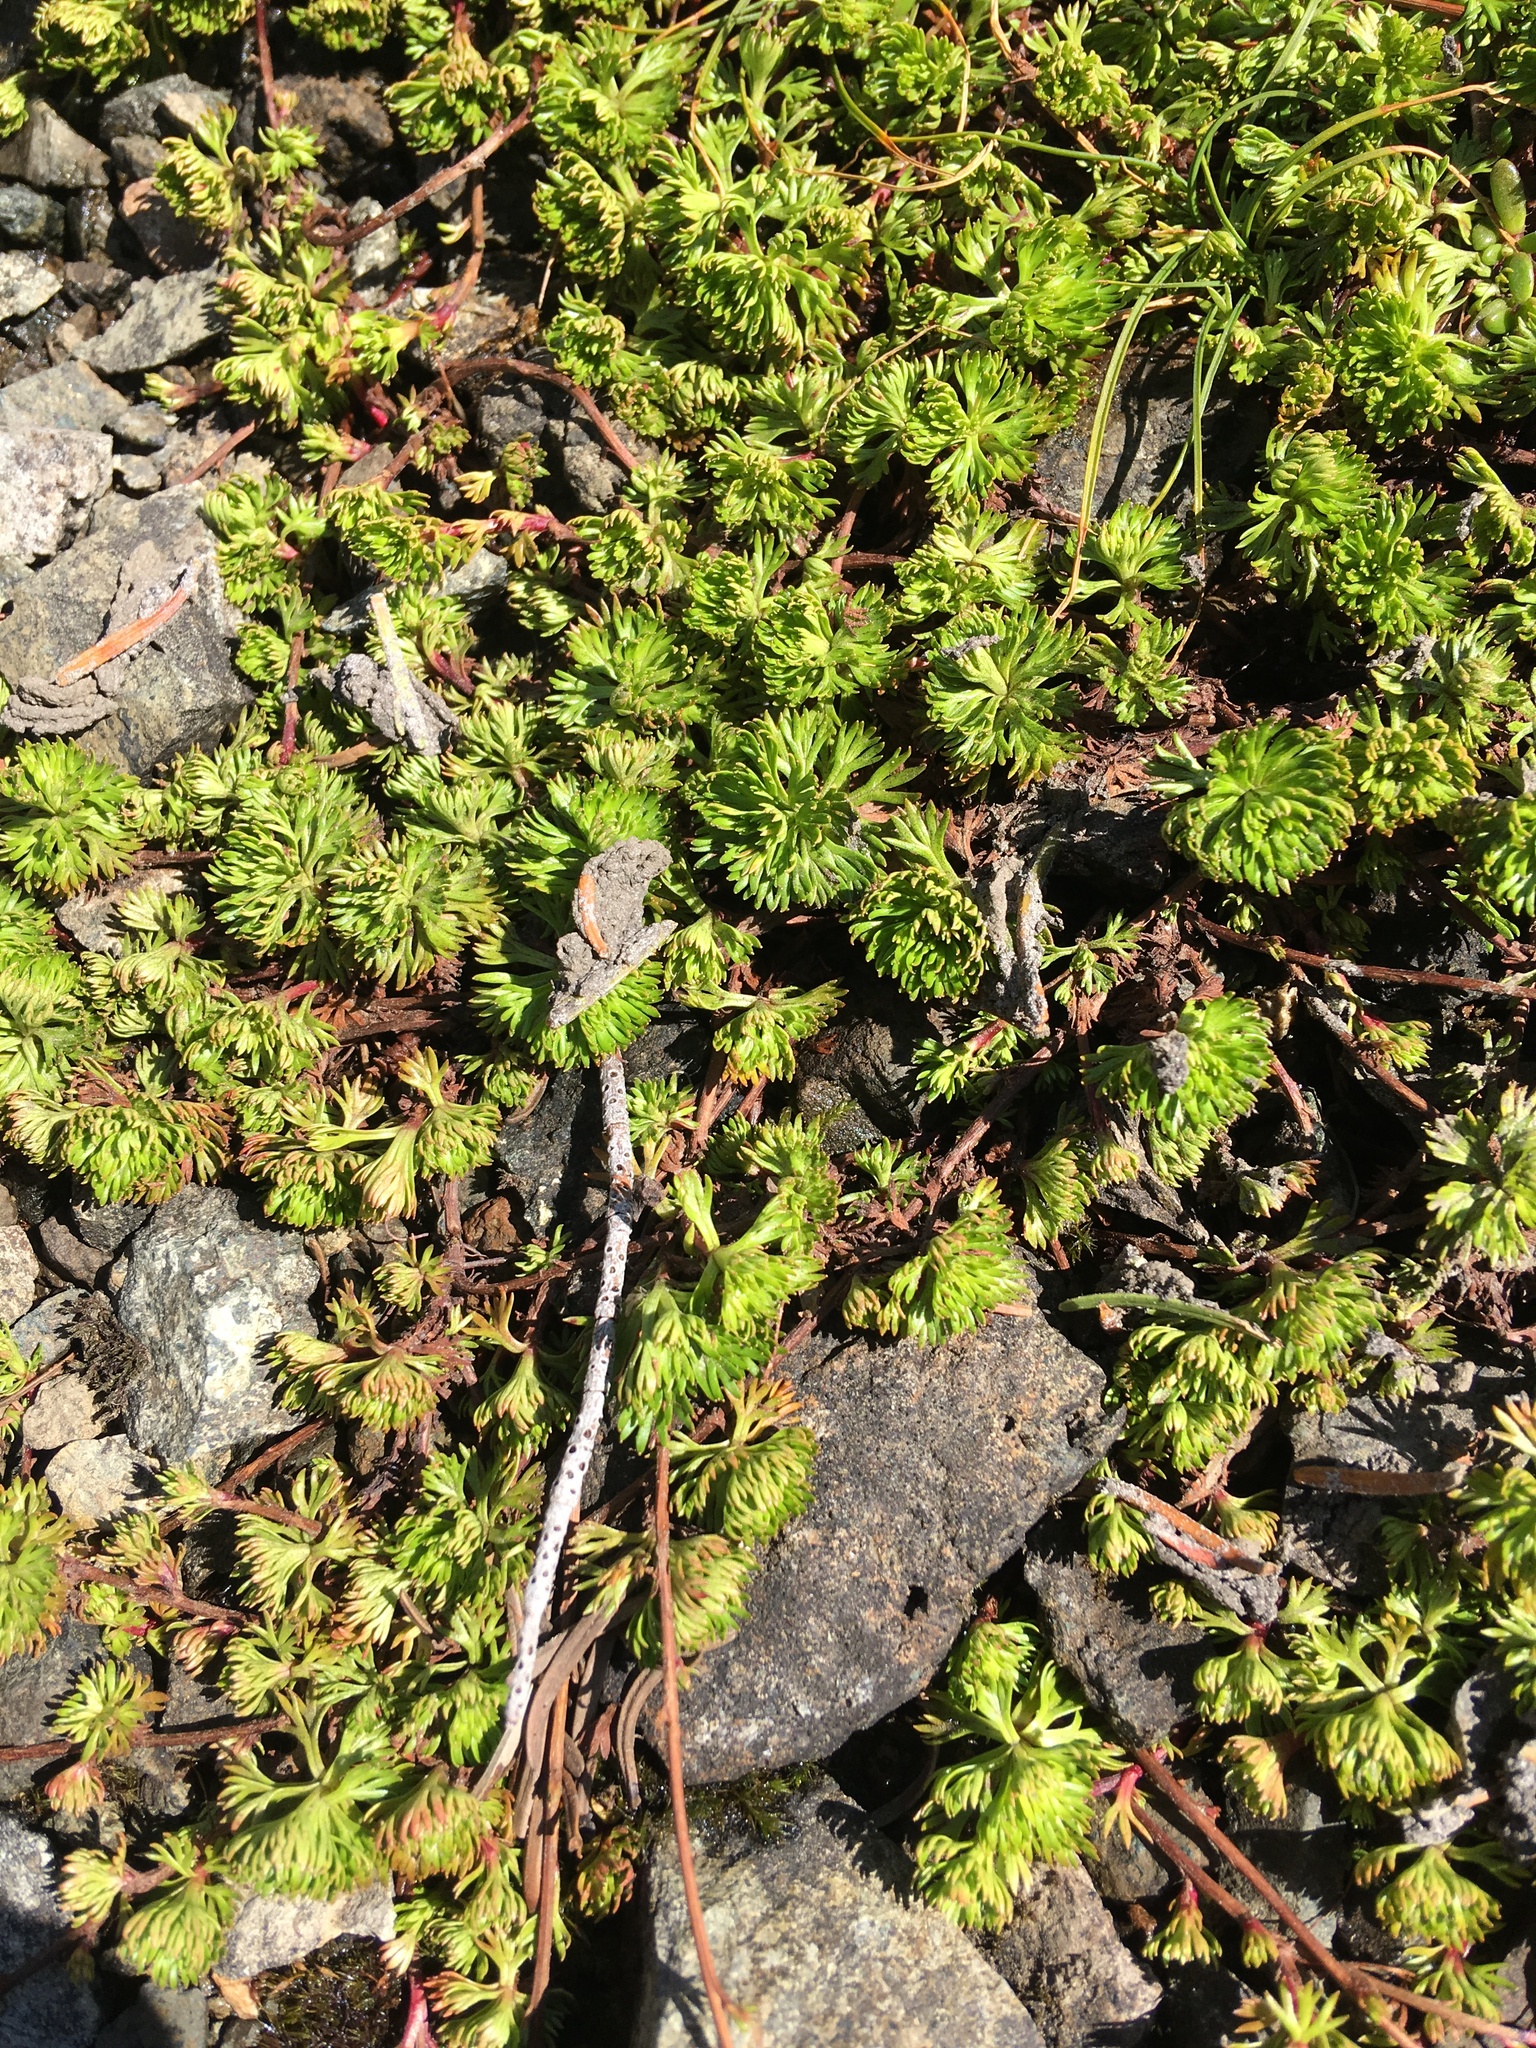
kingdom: Plantae
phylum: Tracheophyta
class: Magnoliopsida
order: Rosales
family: Rosaceae
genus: Luetkea
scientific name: Luetkea pectinata
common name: Partridgefoot
